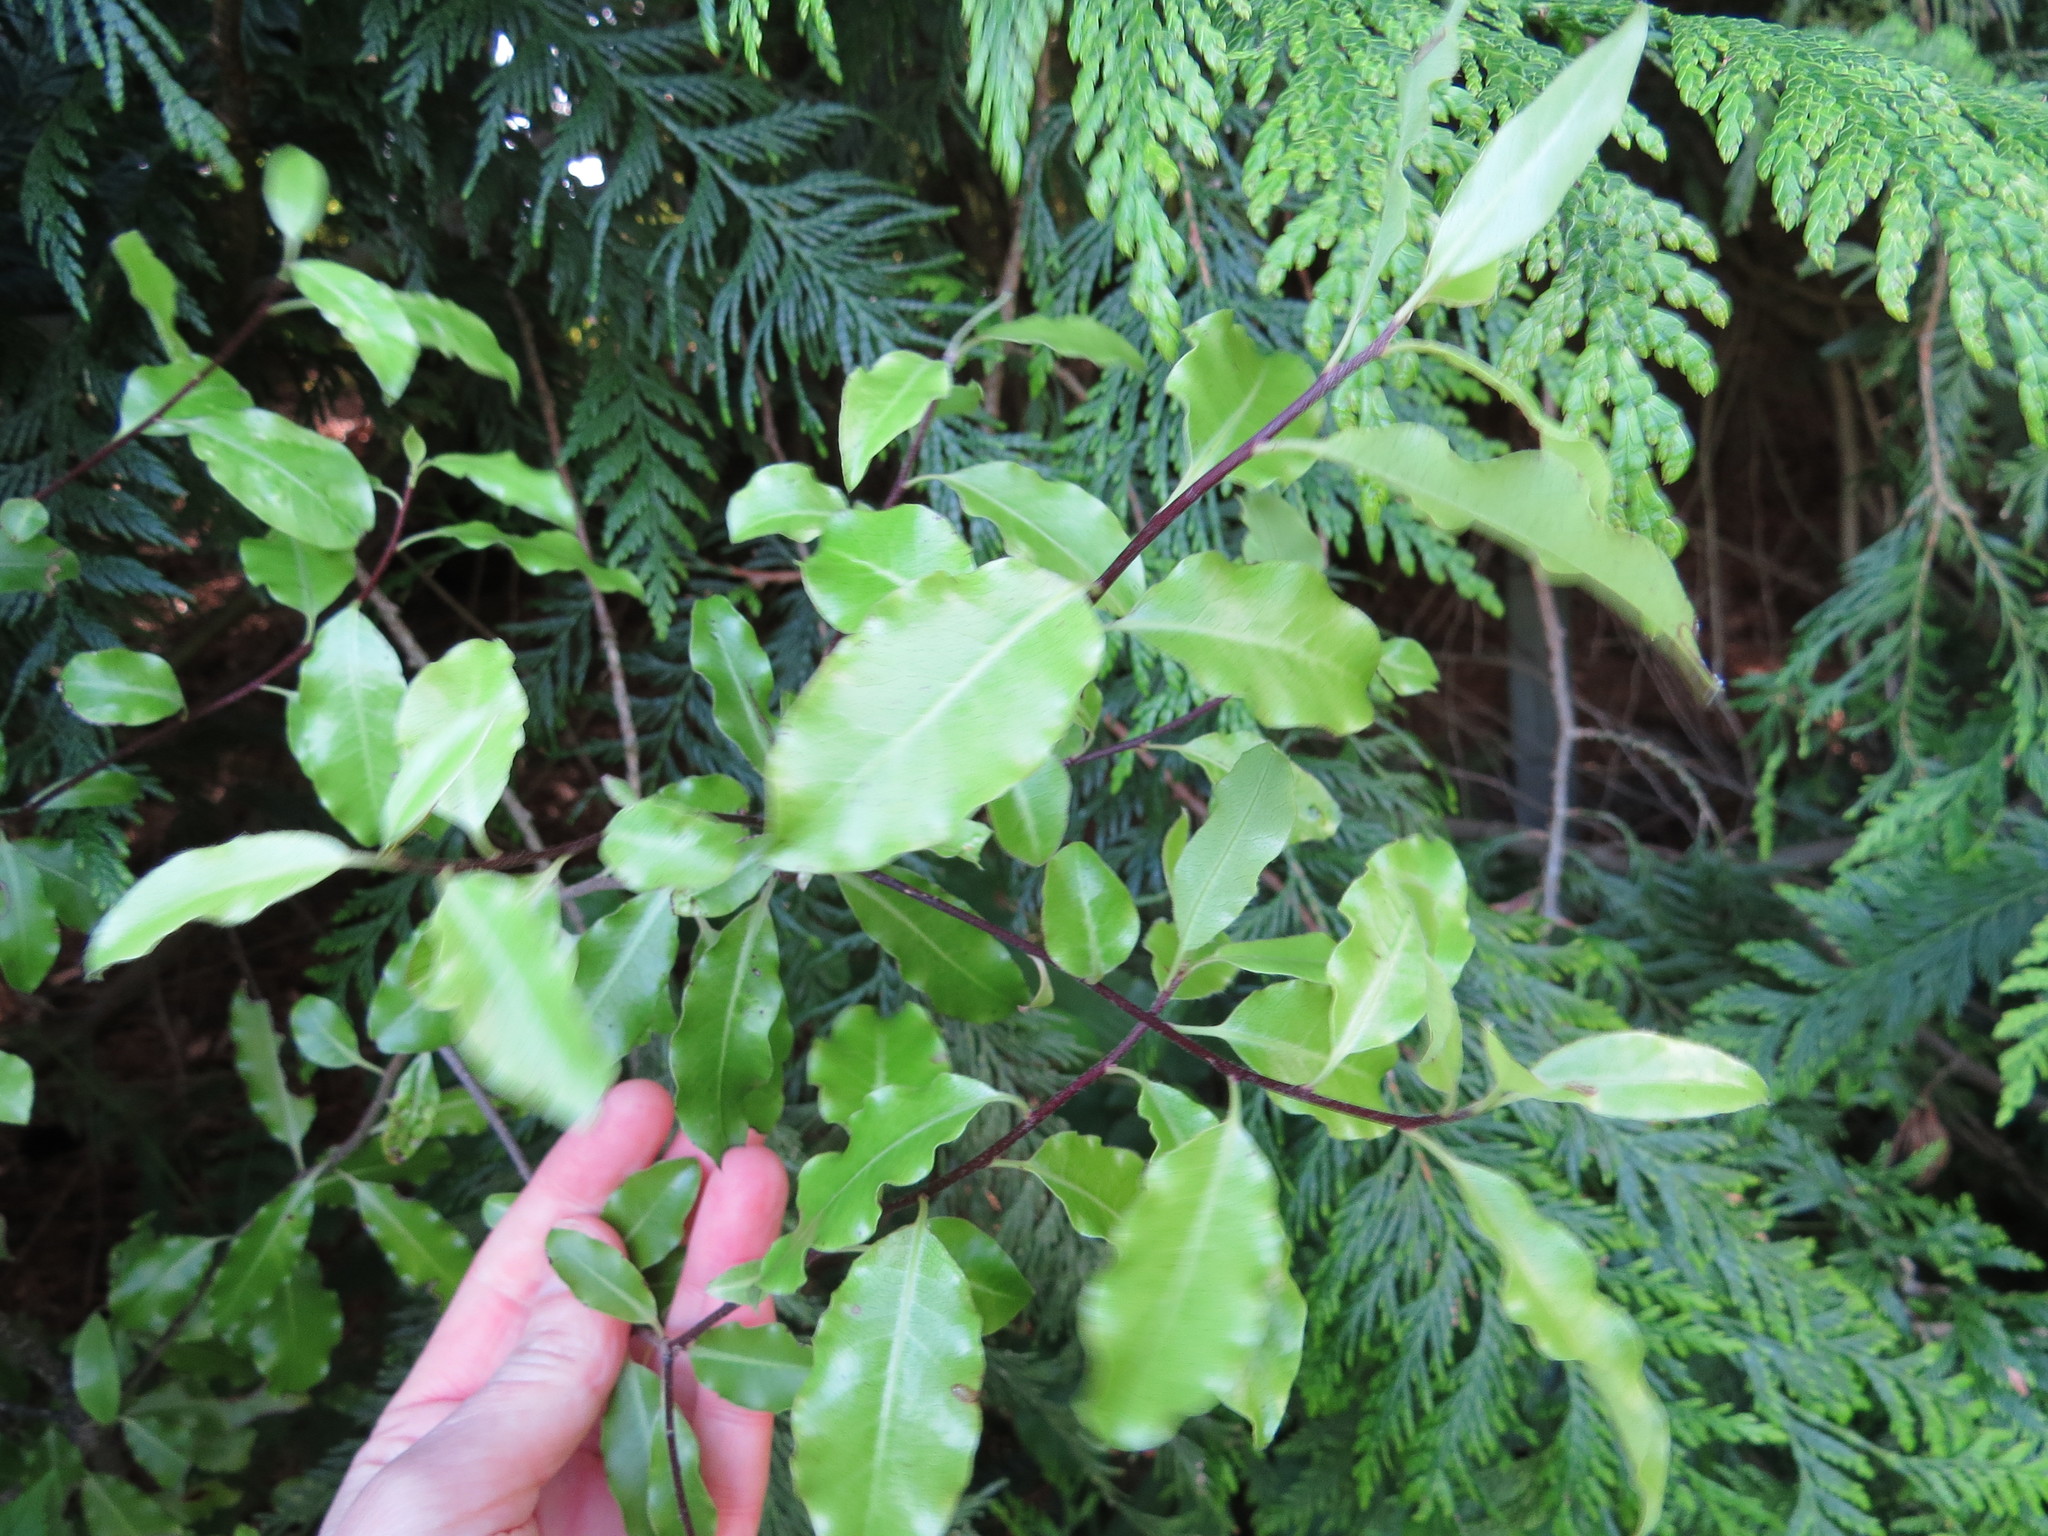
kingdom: Plantae
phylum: Tracheophyta
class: Magnoliopsida
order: Apiales
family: Pittosporaceae
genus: Pittosporum
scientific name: Pittosporum tenuifolium
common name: Kohuhu
